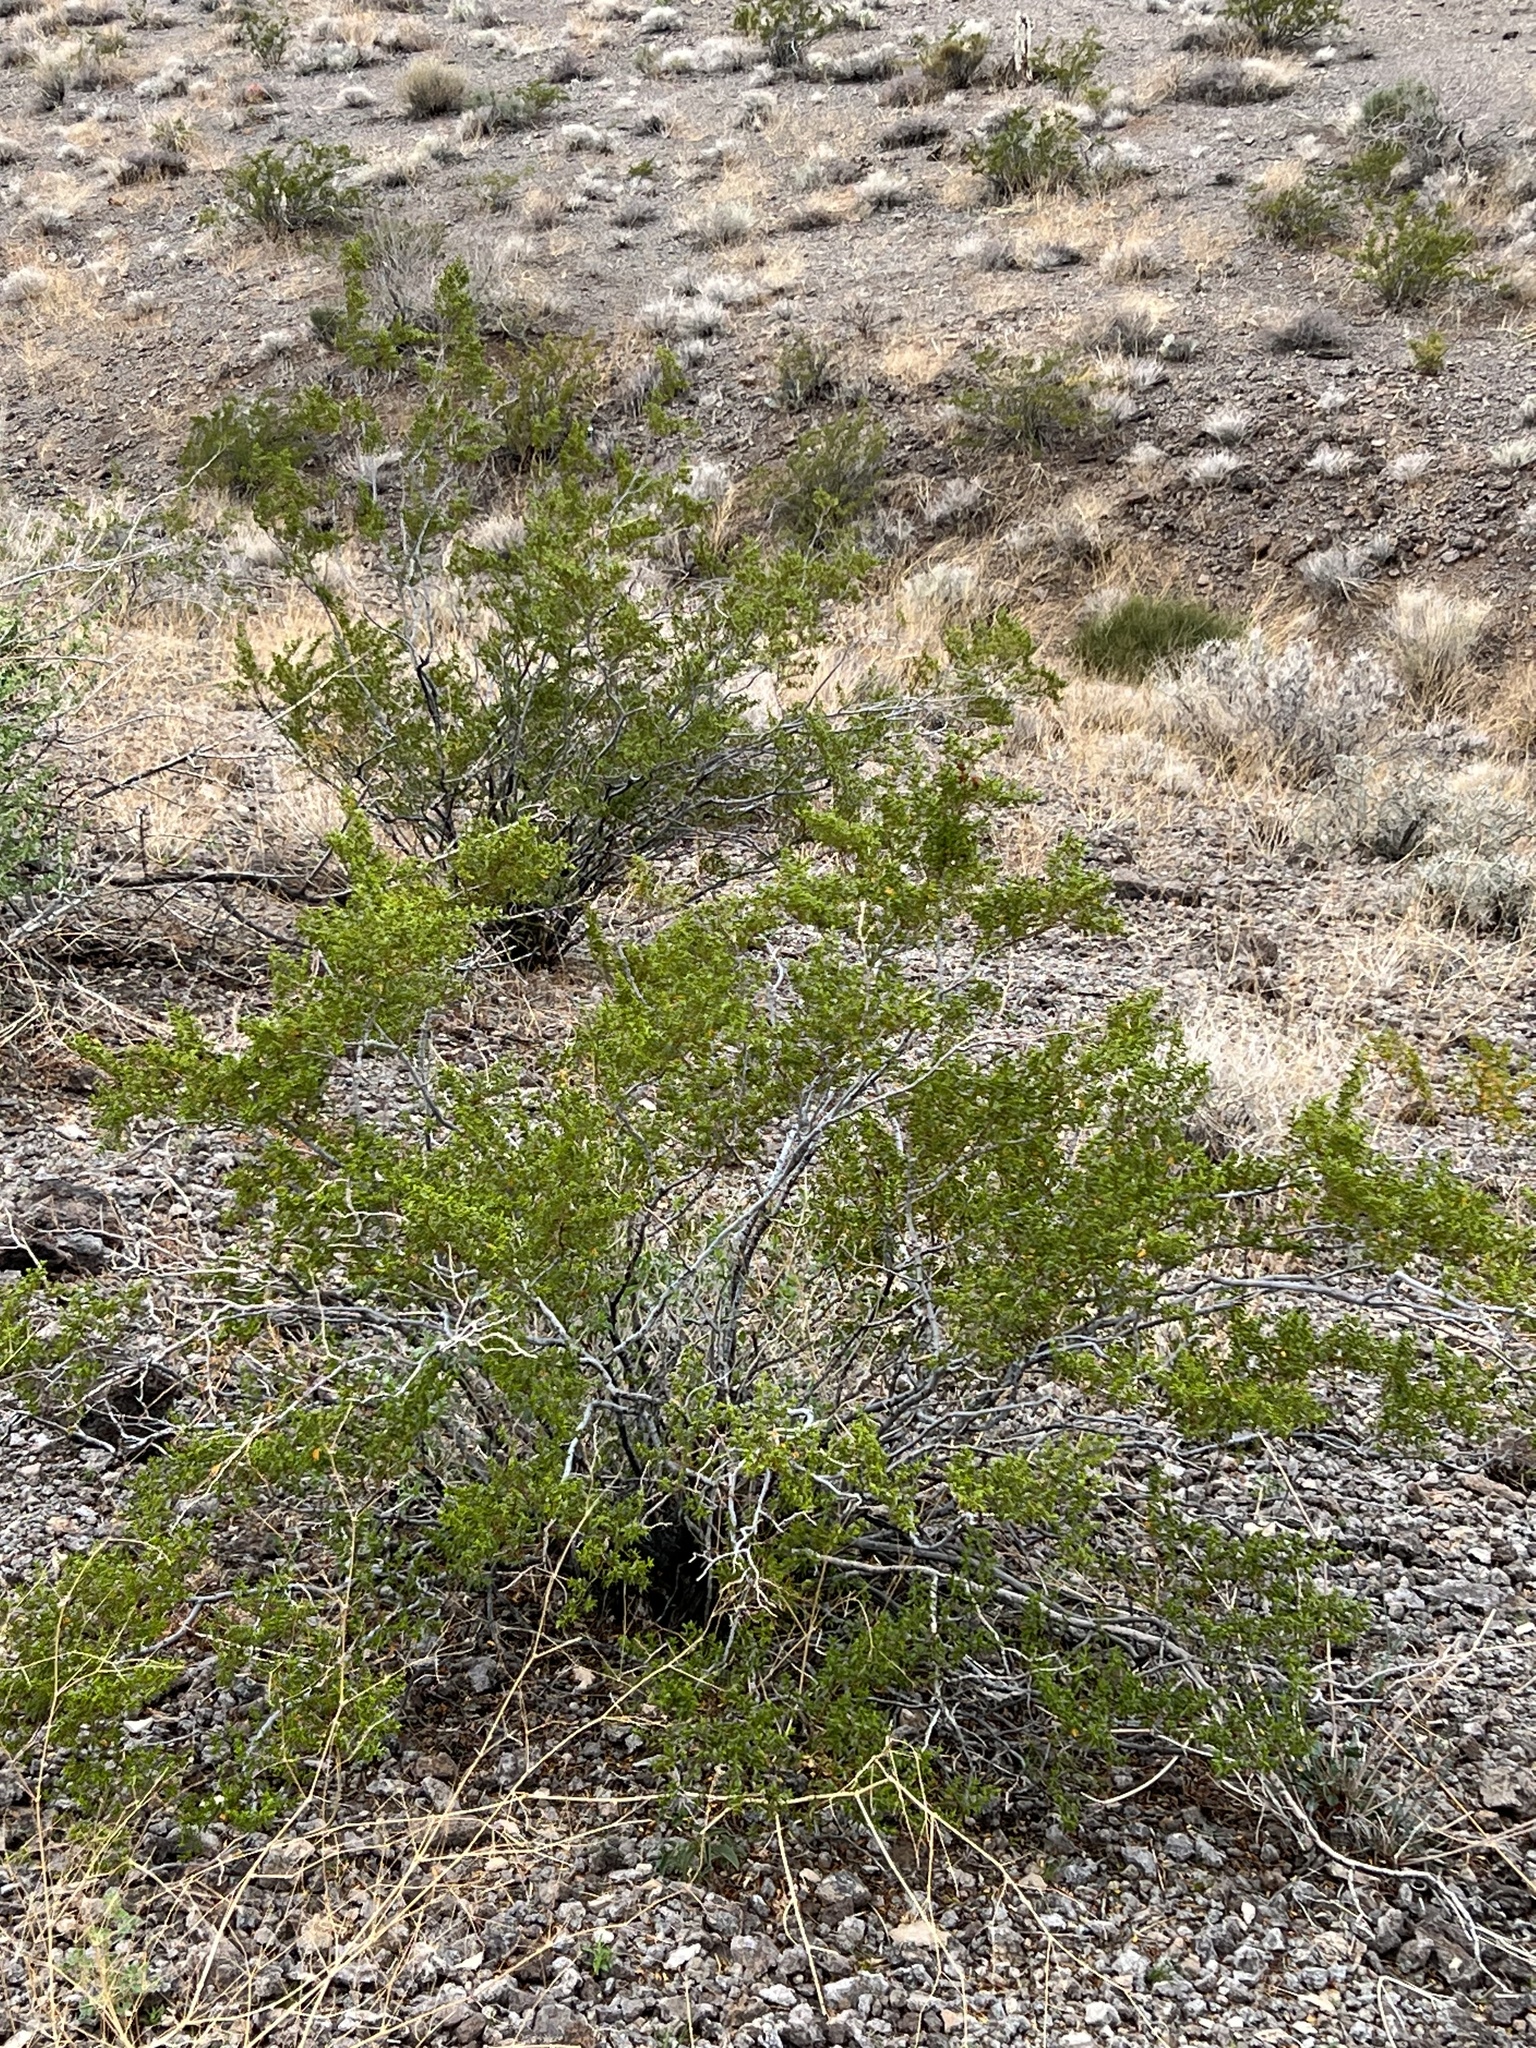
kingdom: Plantae
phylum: Tracheophyta
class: Magnoliopsida
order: Zygophyllales
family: Zygophyllaceae
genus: Larrea
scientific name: Larrea tridentata
